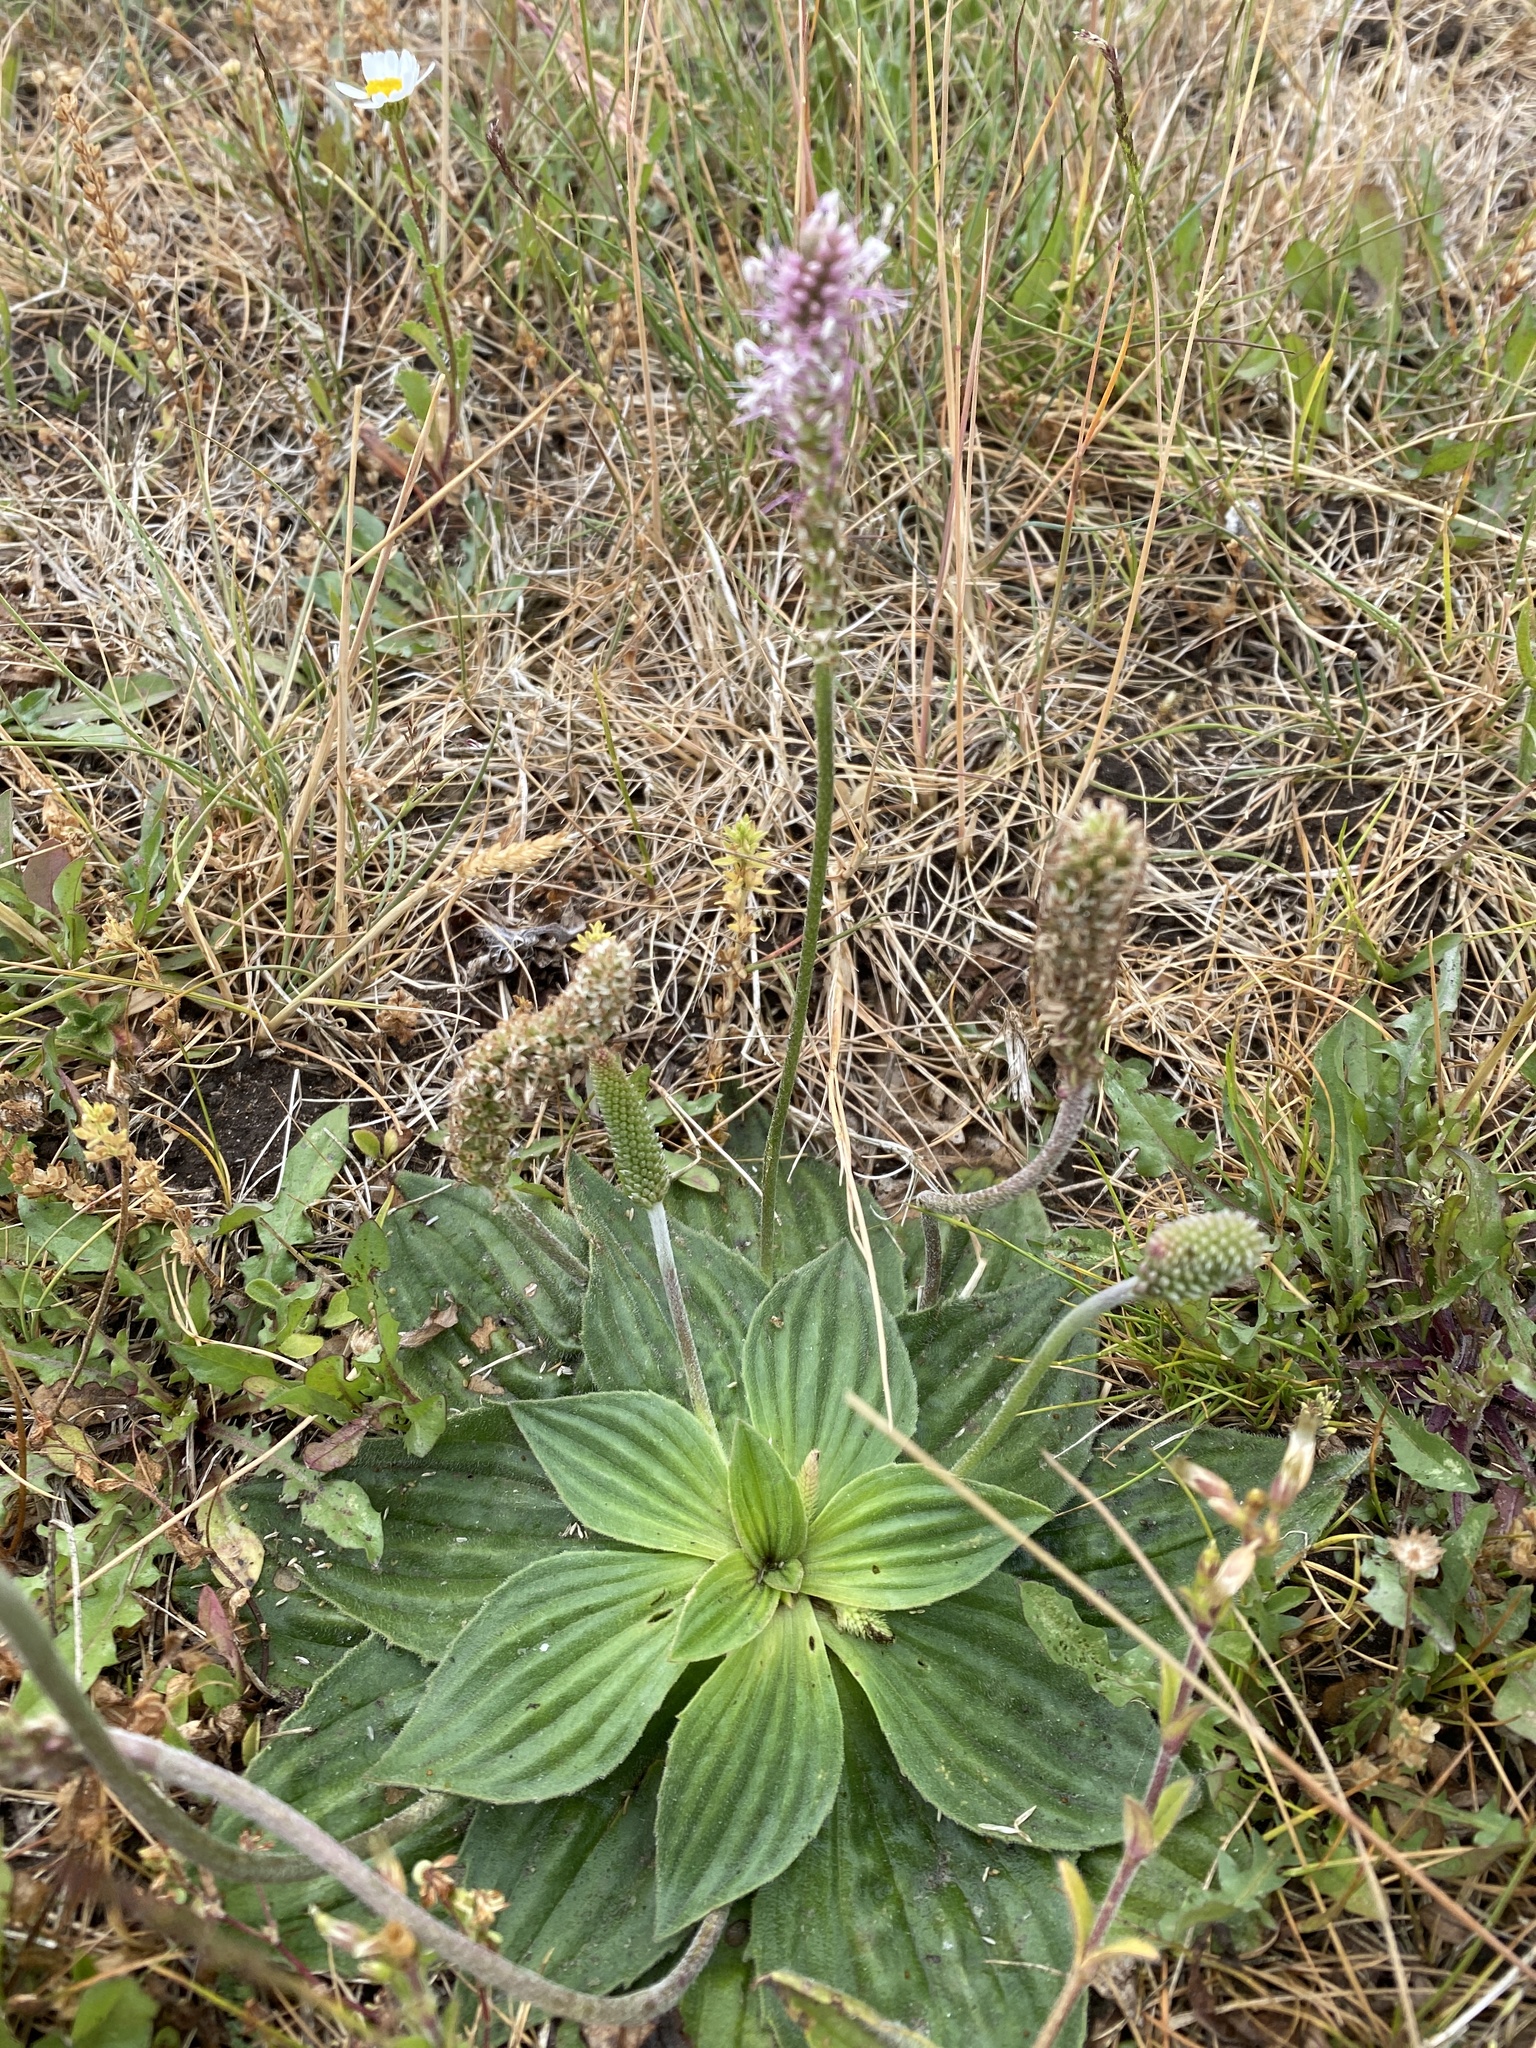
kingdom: Plantae
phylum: Tracheophyta
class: Magnoliopsida
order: Lamiales
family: Plantaginaceae
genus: Plantago
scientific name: Plantago media
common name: Hoary plantain
